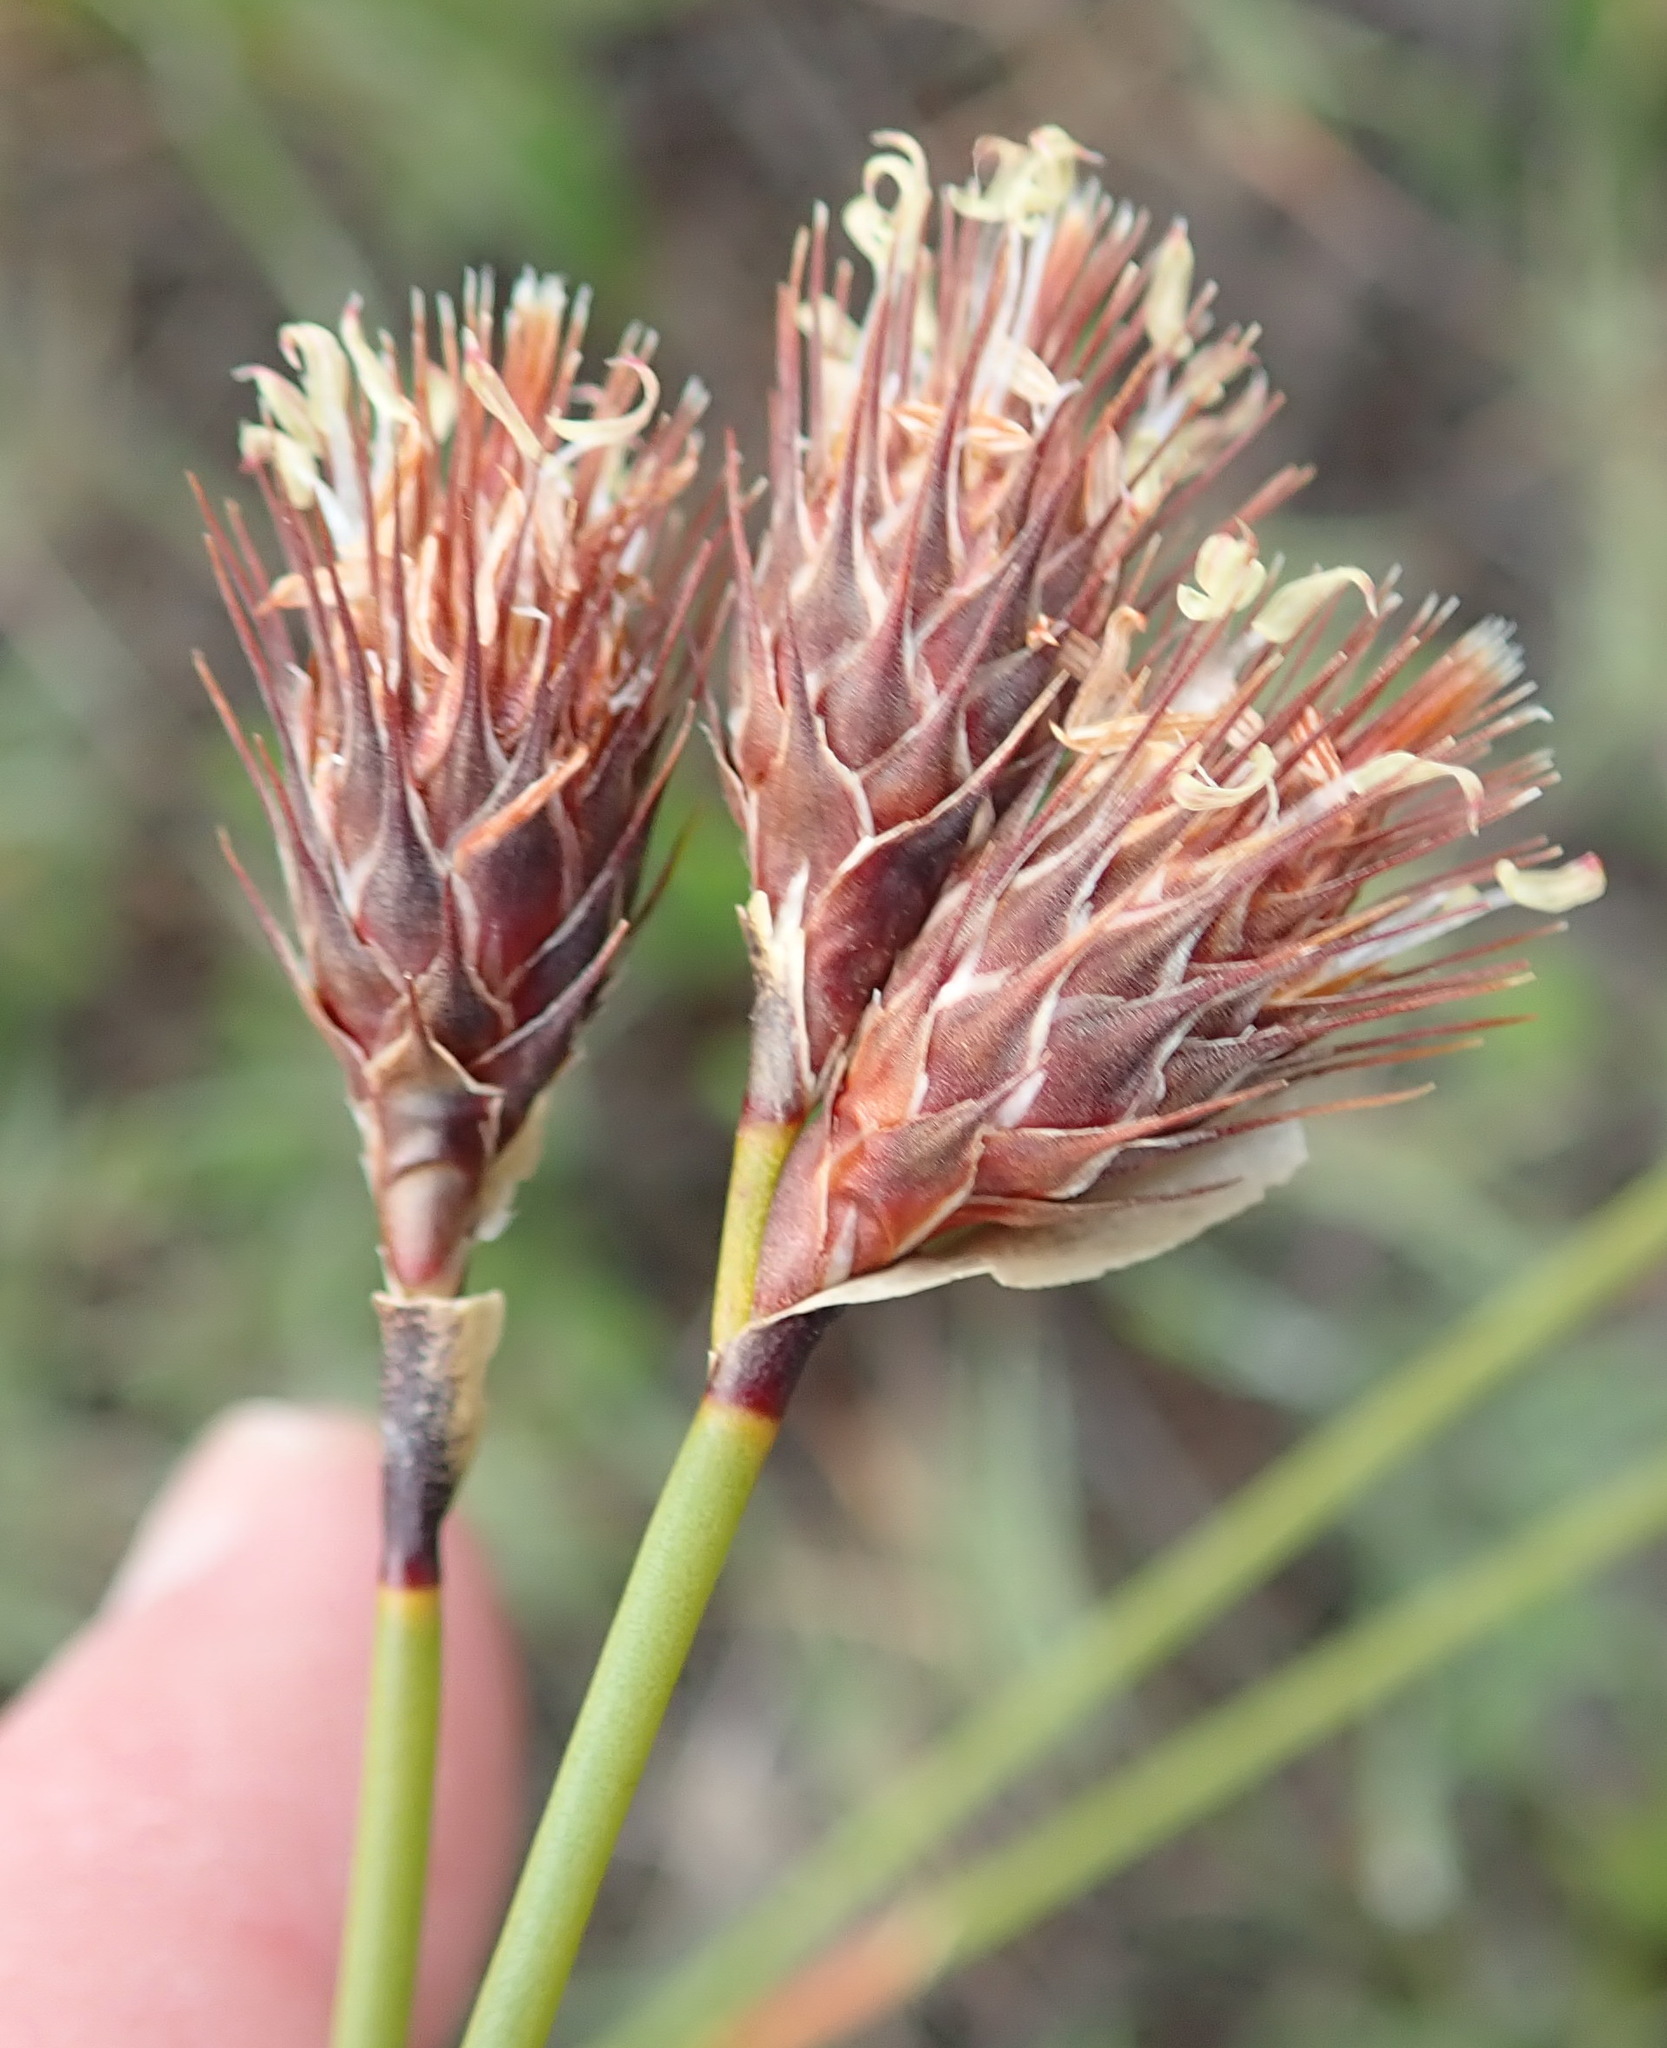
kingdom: Plantae
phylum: Tracheophyta
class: Liliopsida
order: Poales
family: Restionaceae
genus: Hypodiscus
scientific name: Hypodiscus aristatus
